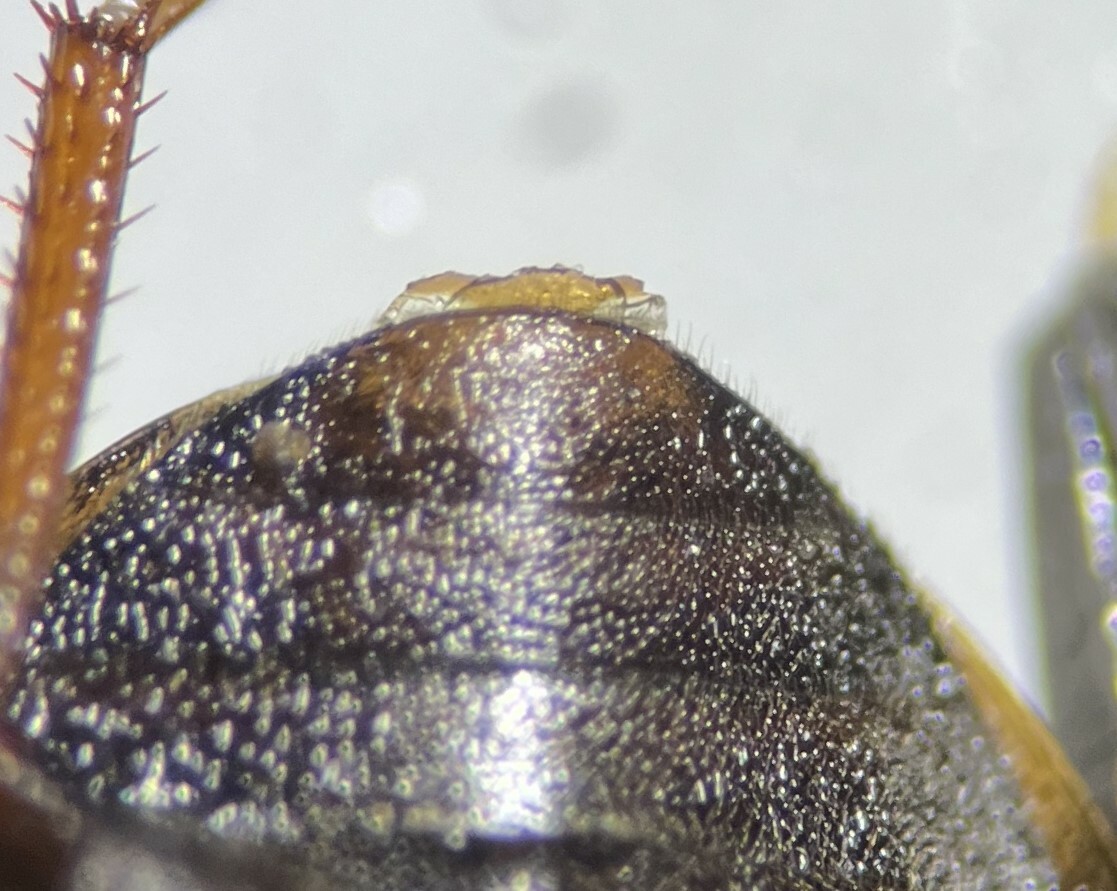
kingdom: Animalia
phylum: Arthropoda
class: Insecta
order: Coleoptera
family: Hydrophilidae
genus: Enochrus
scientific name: Enochrus fimbriatus
